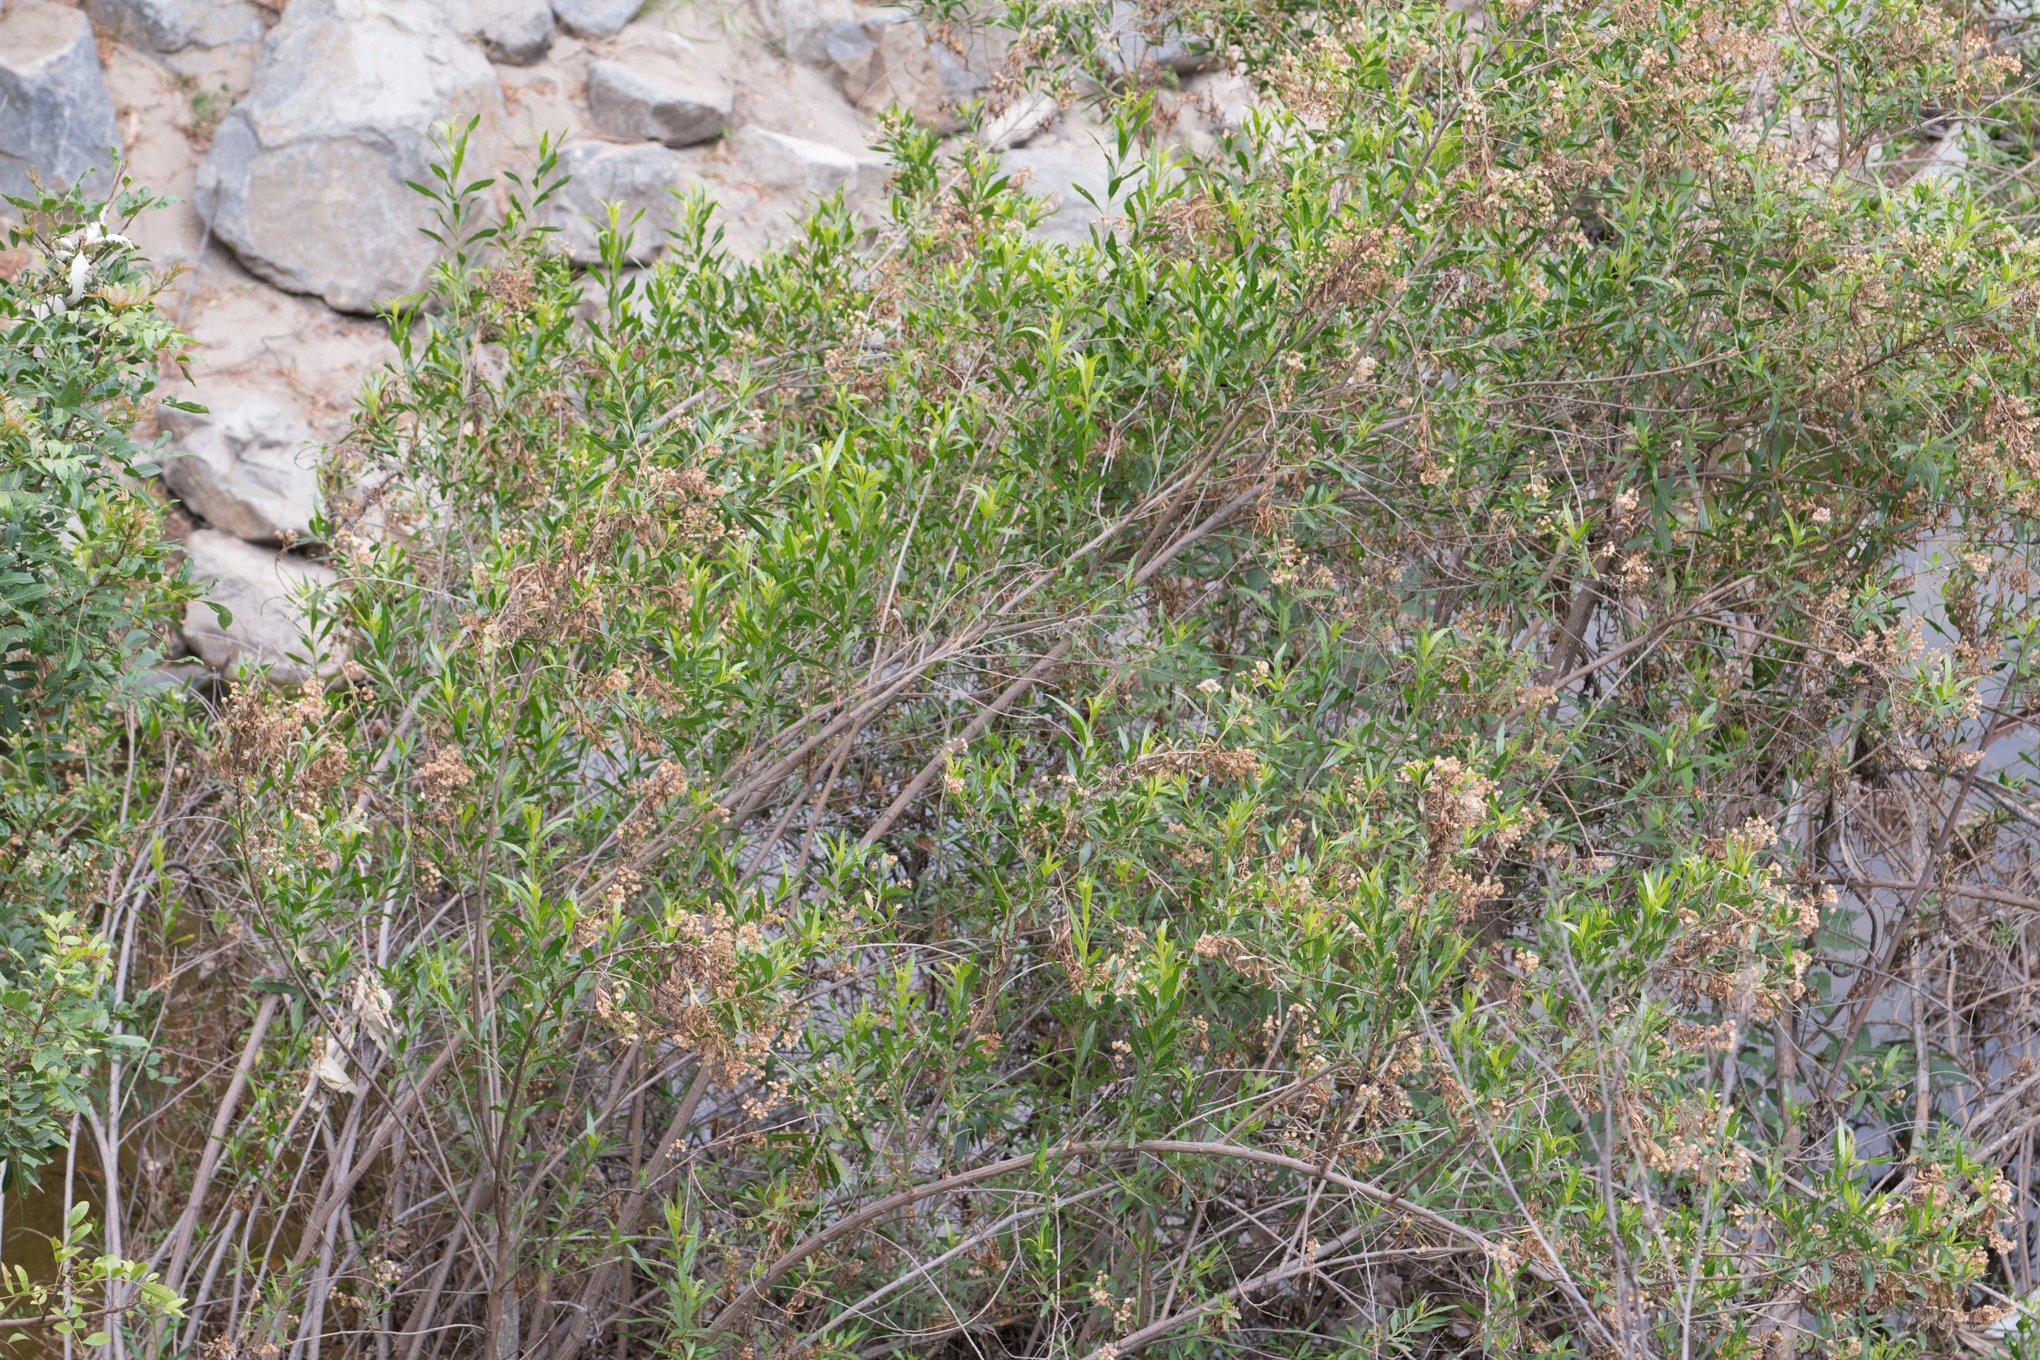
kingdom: Plantae
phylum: Tracheophyta
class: Magnoliopsida
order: Asterales
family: Asteraceae
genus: Baccharis
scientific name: Baccharis salicifolia
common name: Sticky baccharis
